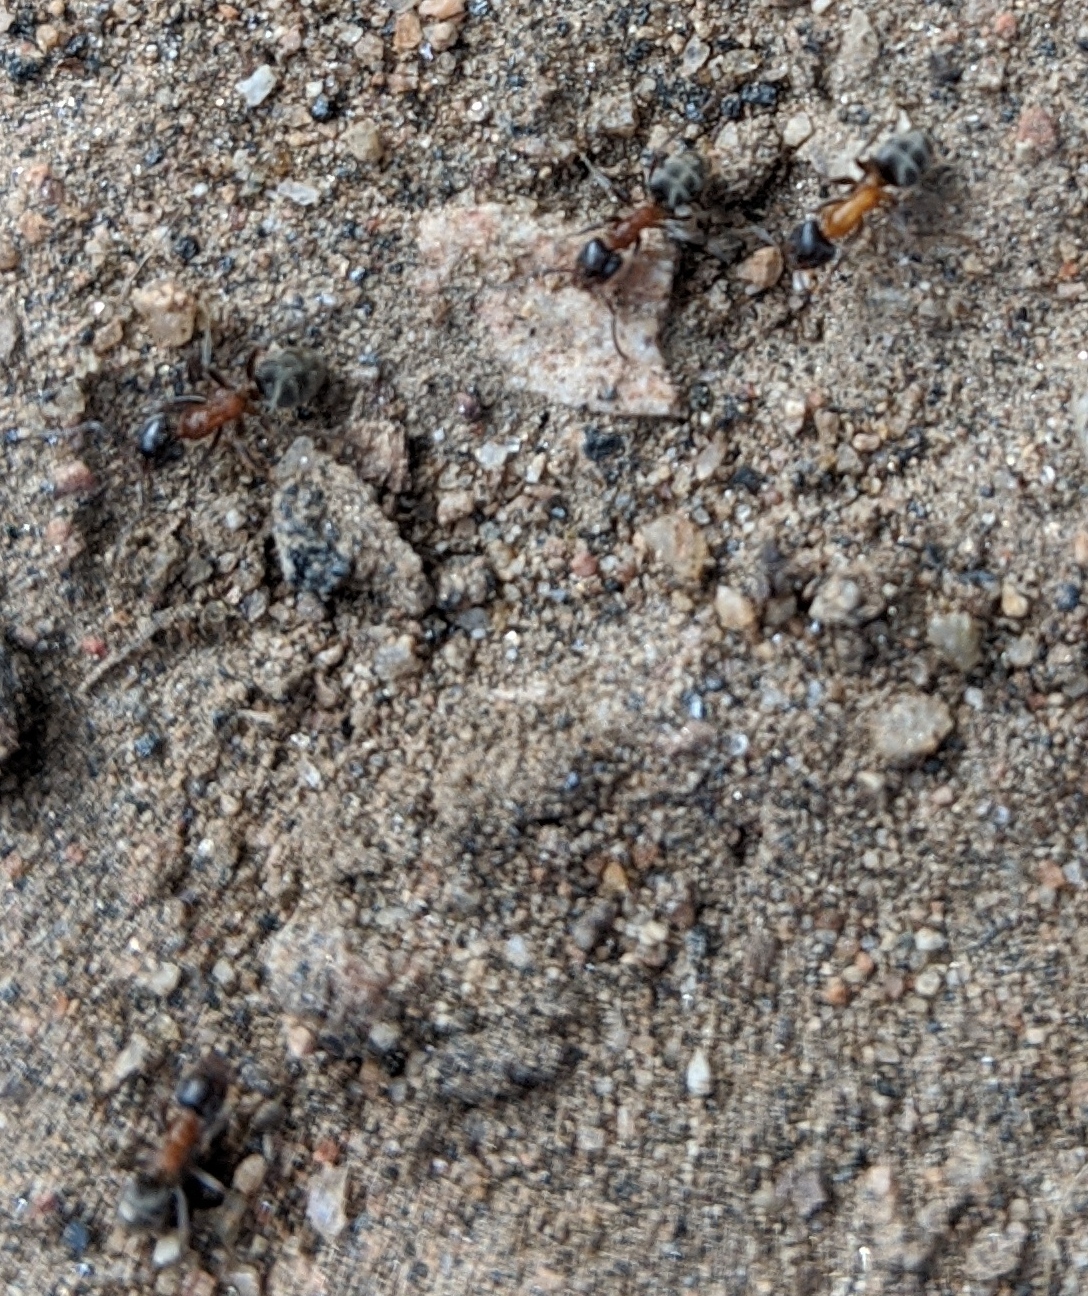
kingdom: Animalia
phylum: Arthropoda
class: Insecta
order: Hymenoptera
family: Formicidae
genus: Liometopum
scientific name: Liometopum occidentale
